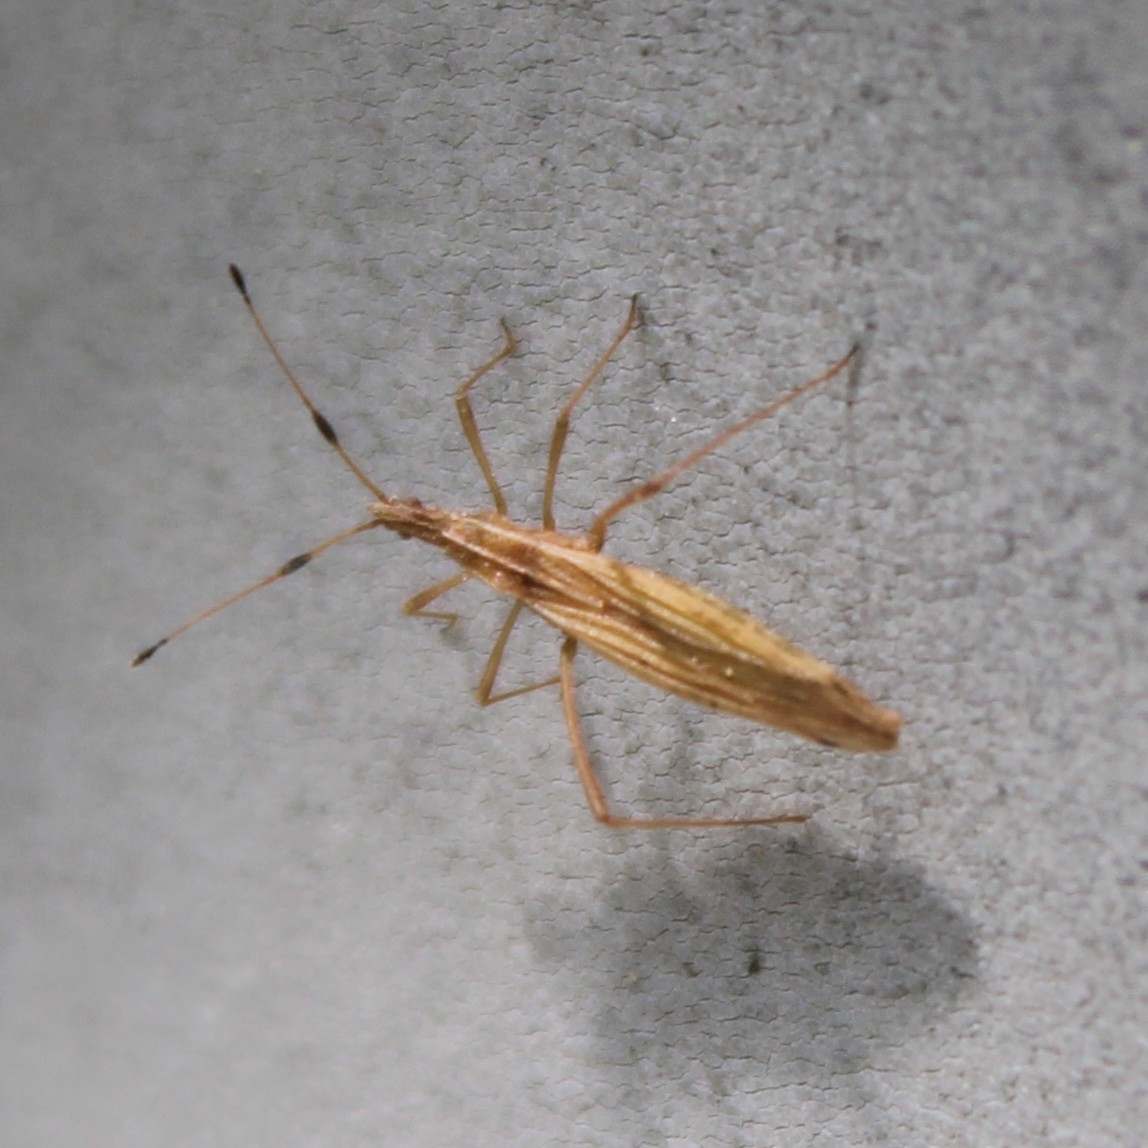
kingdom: Animalia
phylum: Arthropoda
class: Insecta
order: Hemiptera
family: Berytidae
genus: Berytinus
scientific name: Berytinus minor
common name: Stilt bug
